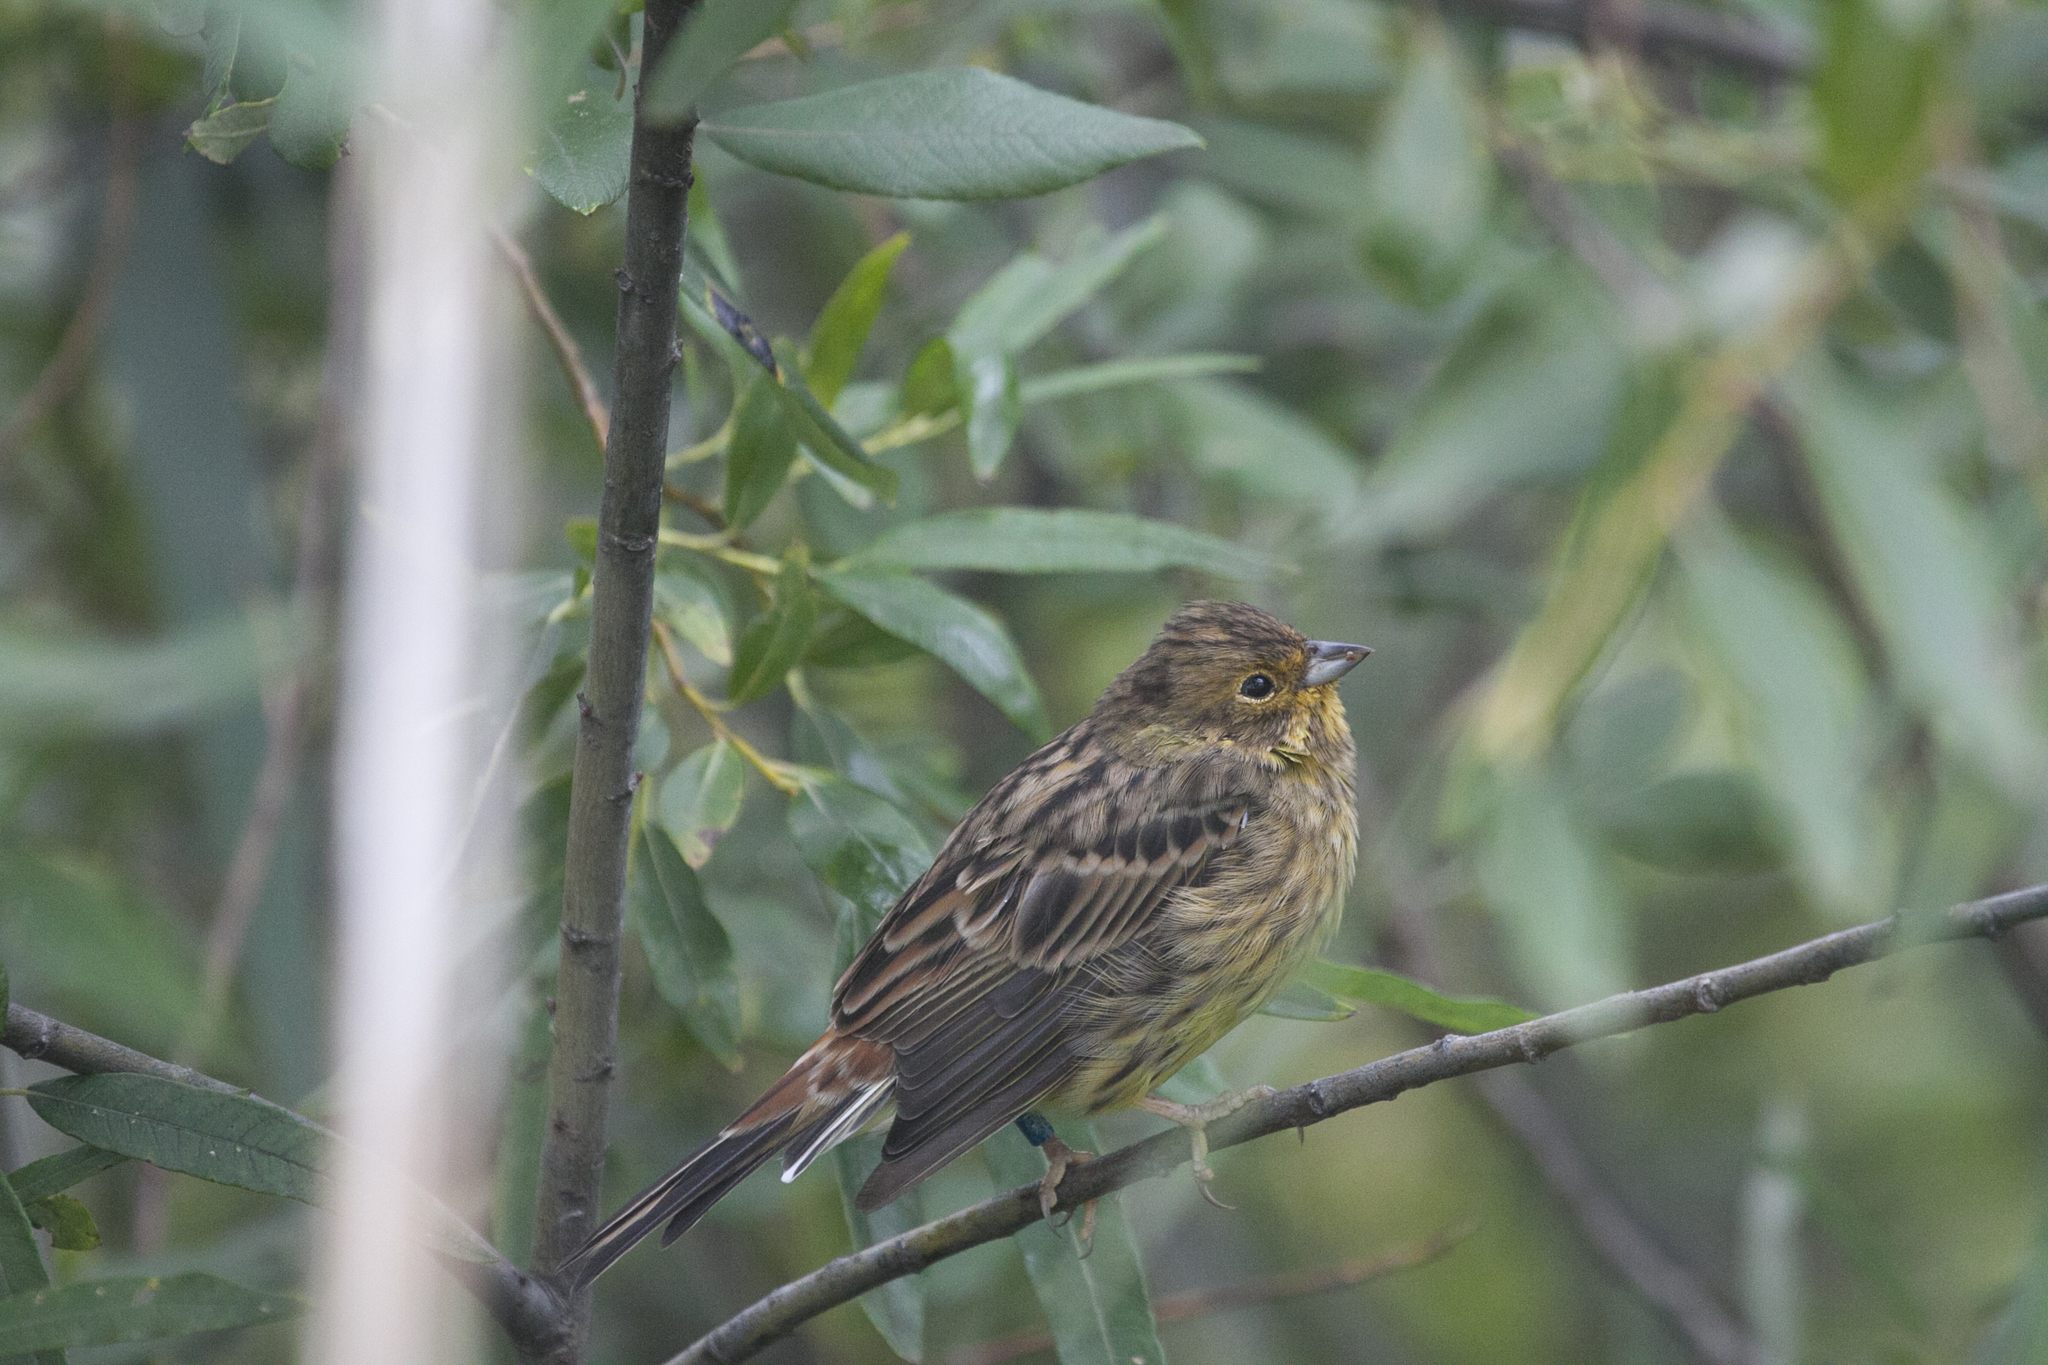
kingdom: Animalia
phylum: Chordata
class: Aves
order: Passeriformes
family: Emberizidae
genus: Emberiza
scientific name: Emberiza citrinella
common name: Yellowhammer
